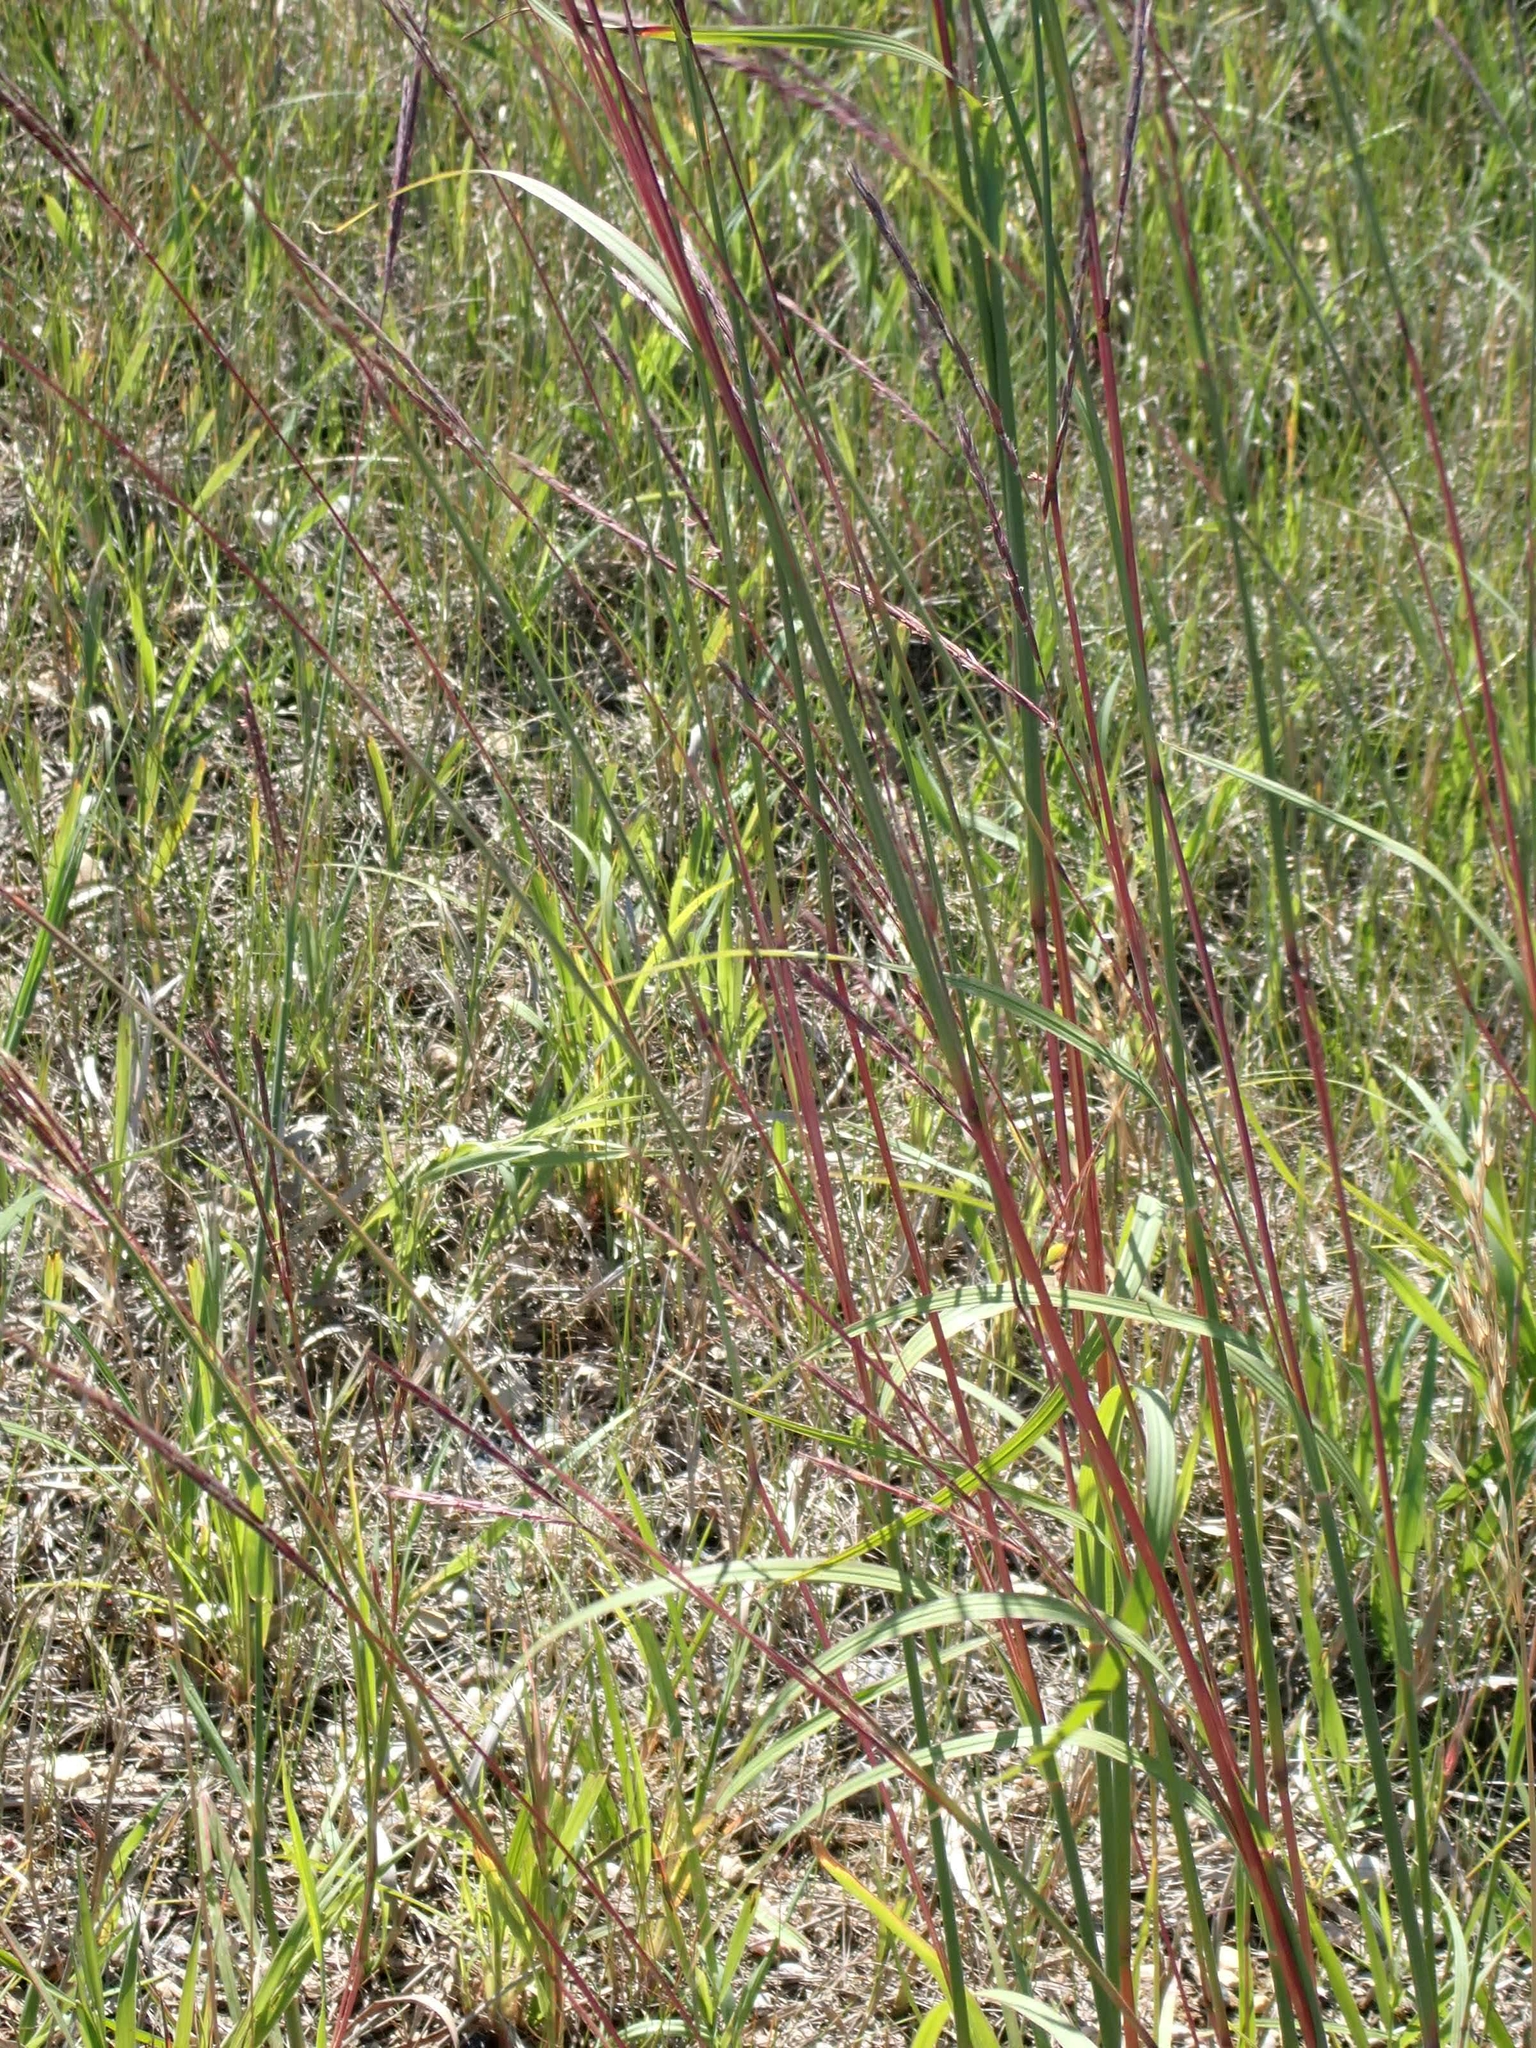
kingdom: Plantae
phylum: Tracheophyta
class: Liliopsida
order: Poales
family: Poaceae
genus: Andropogon
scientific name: Andropogon gerardi
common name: Big bluestem
